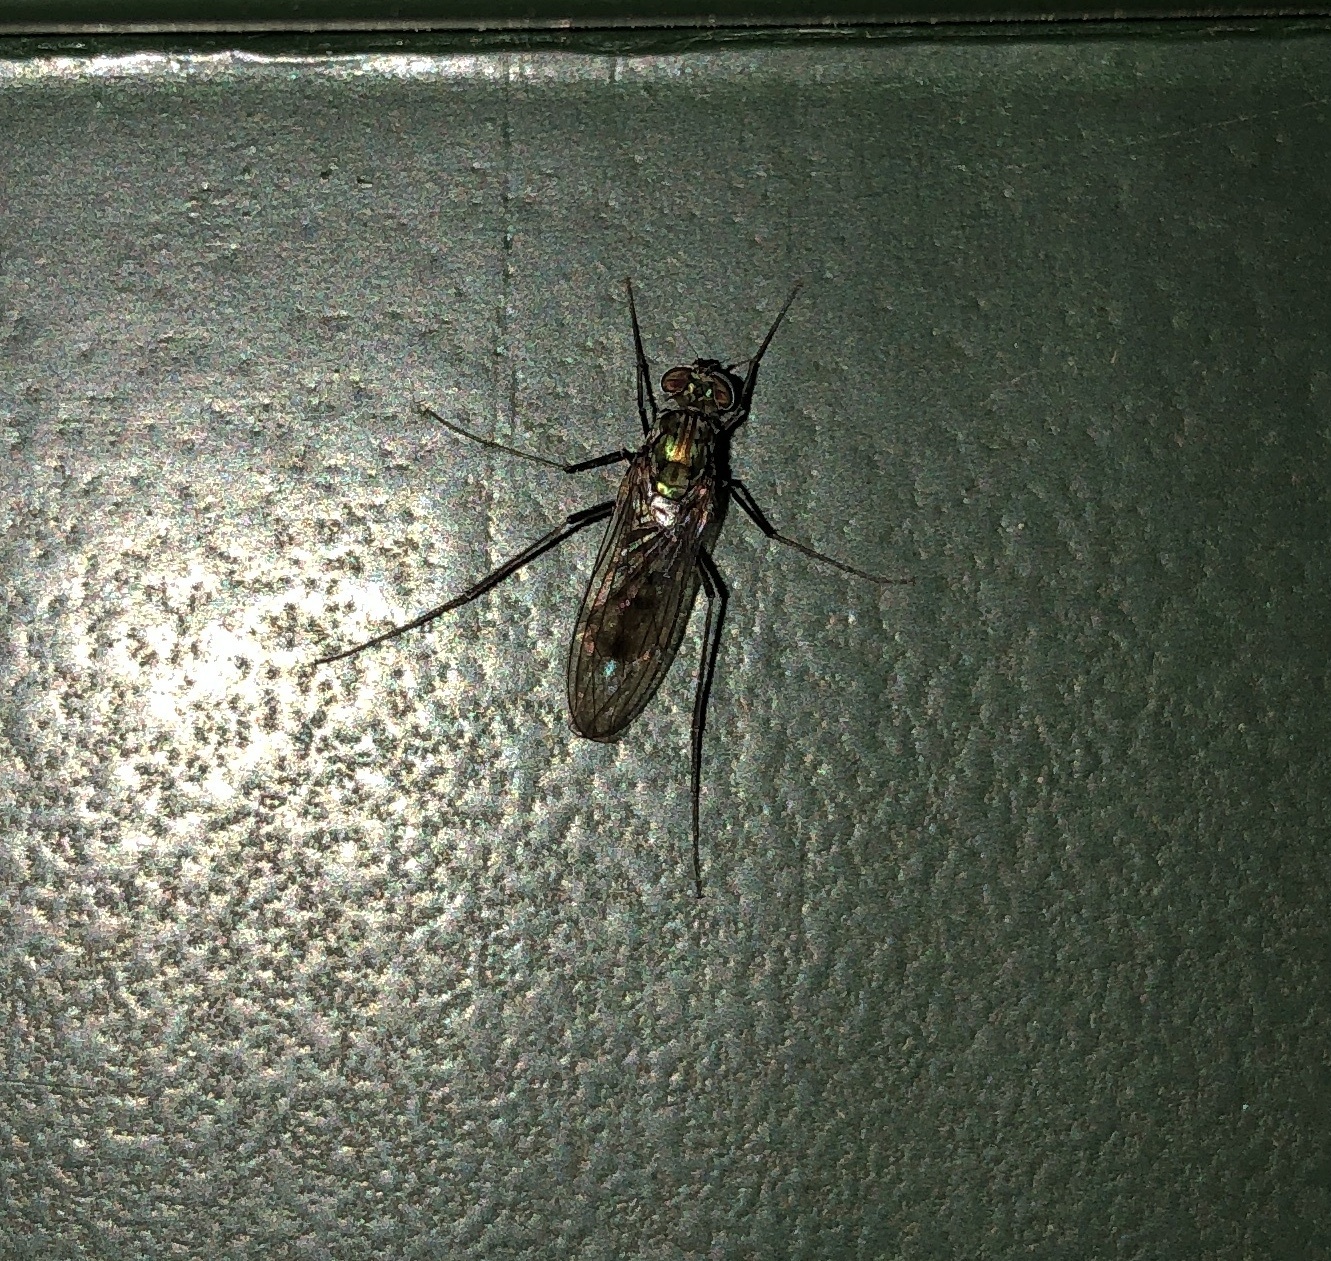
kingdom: Animalia
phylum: Arthropoda
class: Insecta
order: Diptera
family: Dolichopodidae
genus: Liancalus
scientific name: Liancalus virens
